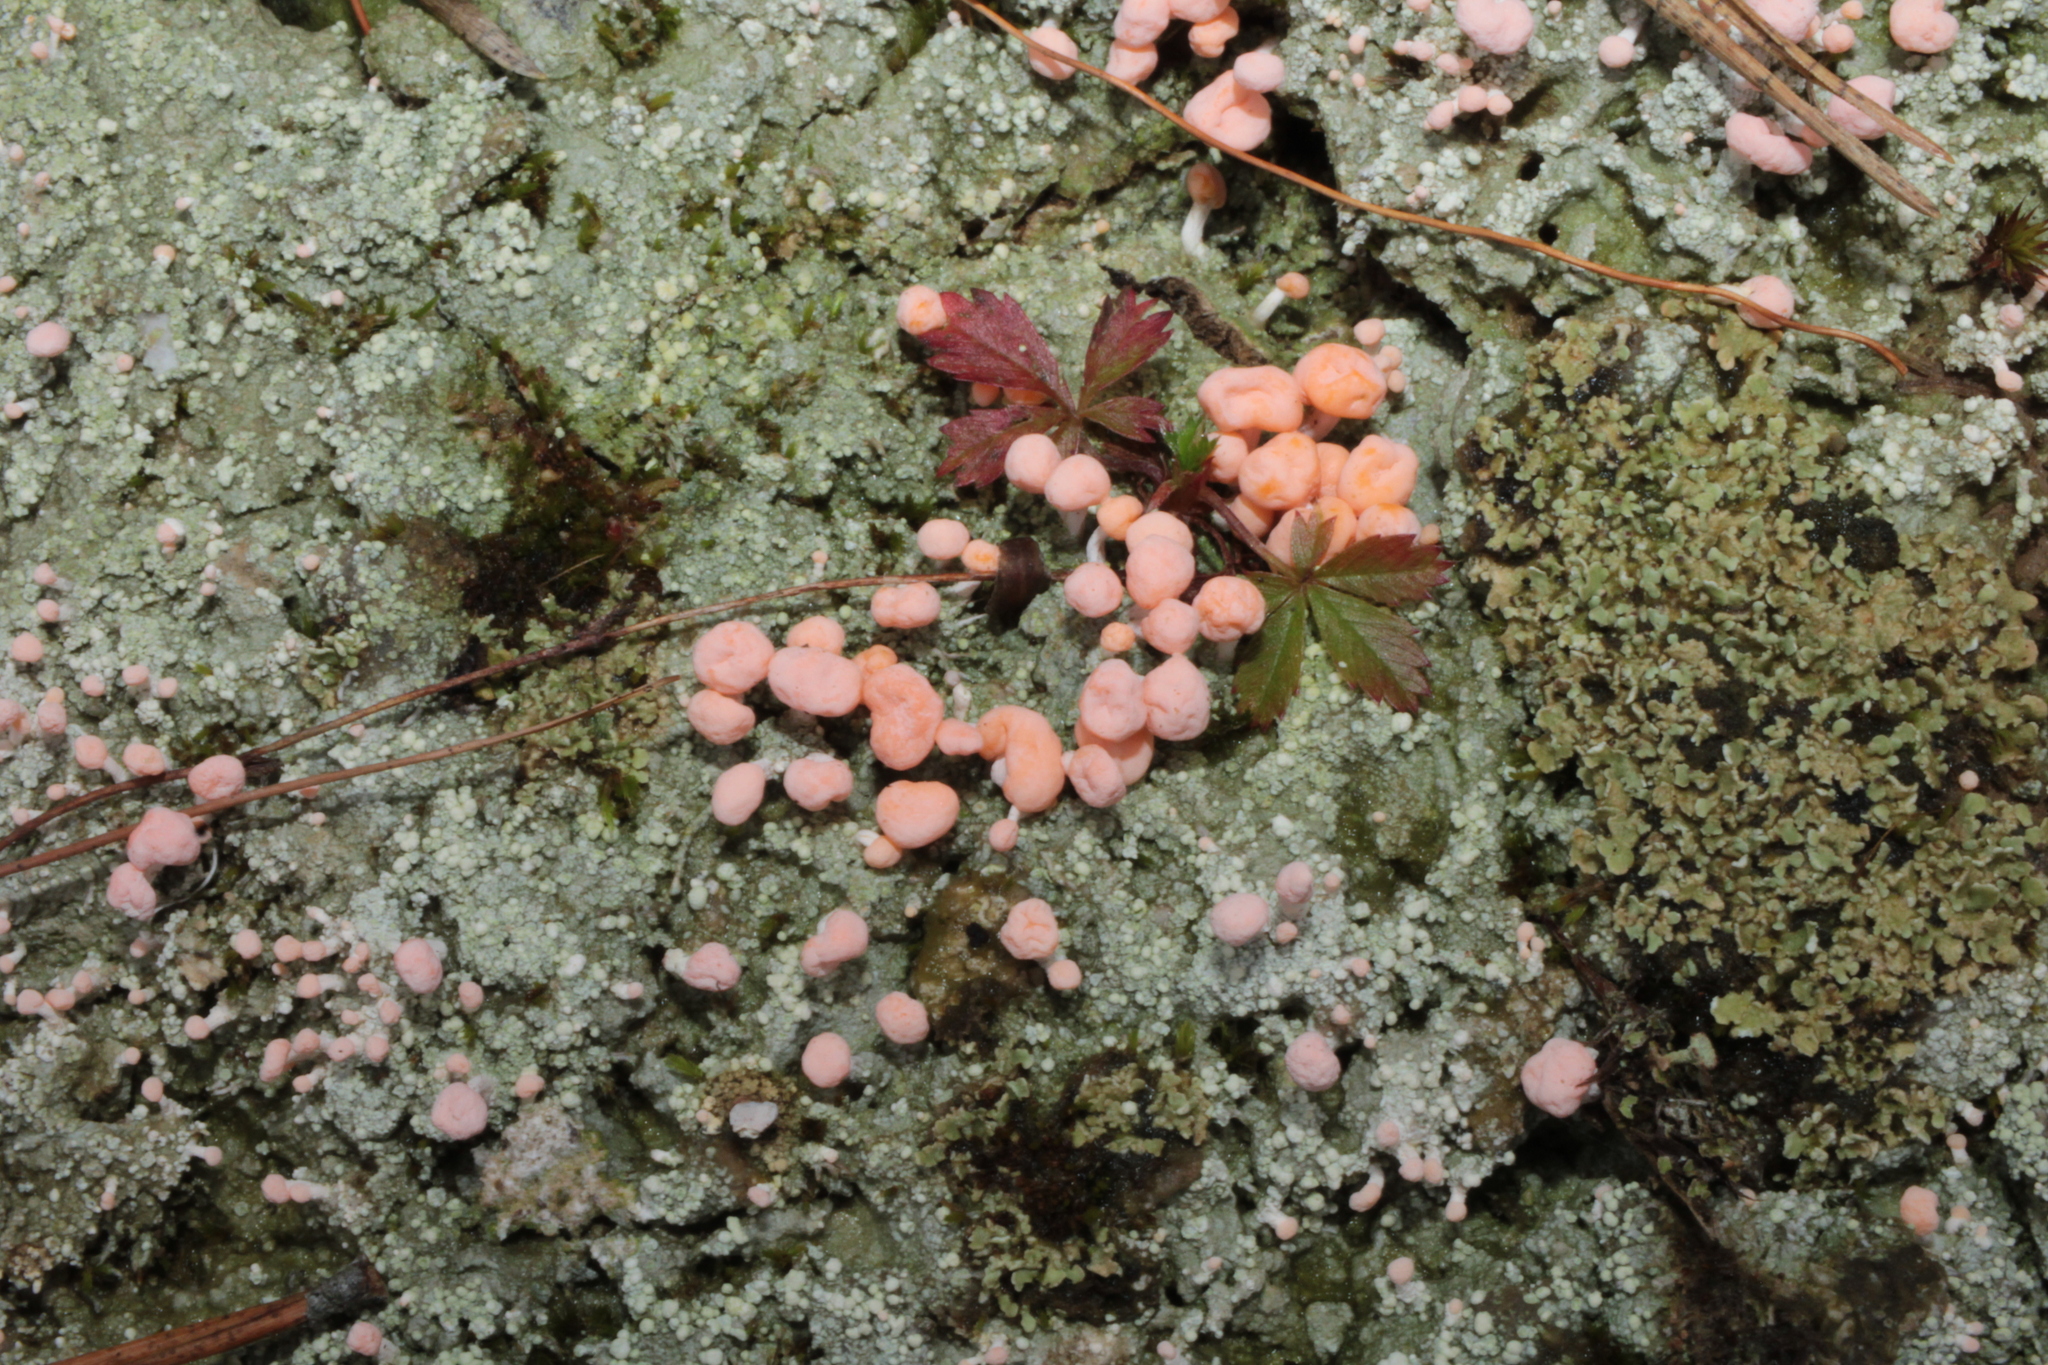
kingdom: Fungi
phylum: Ascomycota
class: Lecanoromycetes
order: Pertusariales
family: Icmadophilaceae
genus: Dibaeis
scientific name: Dibaeis baeomyces
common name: Pink earth lichen
